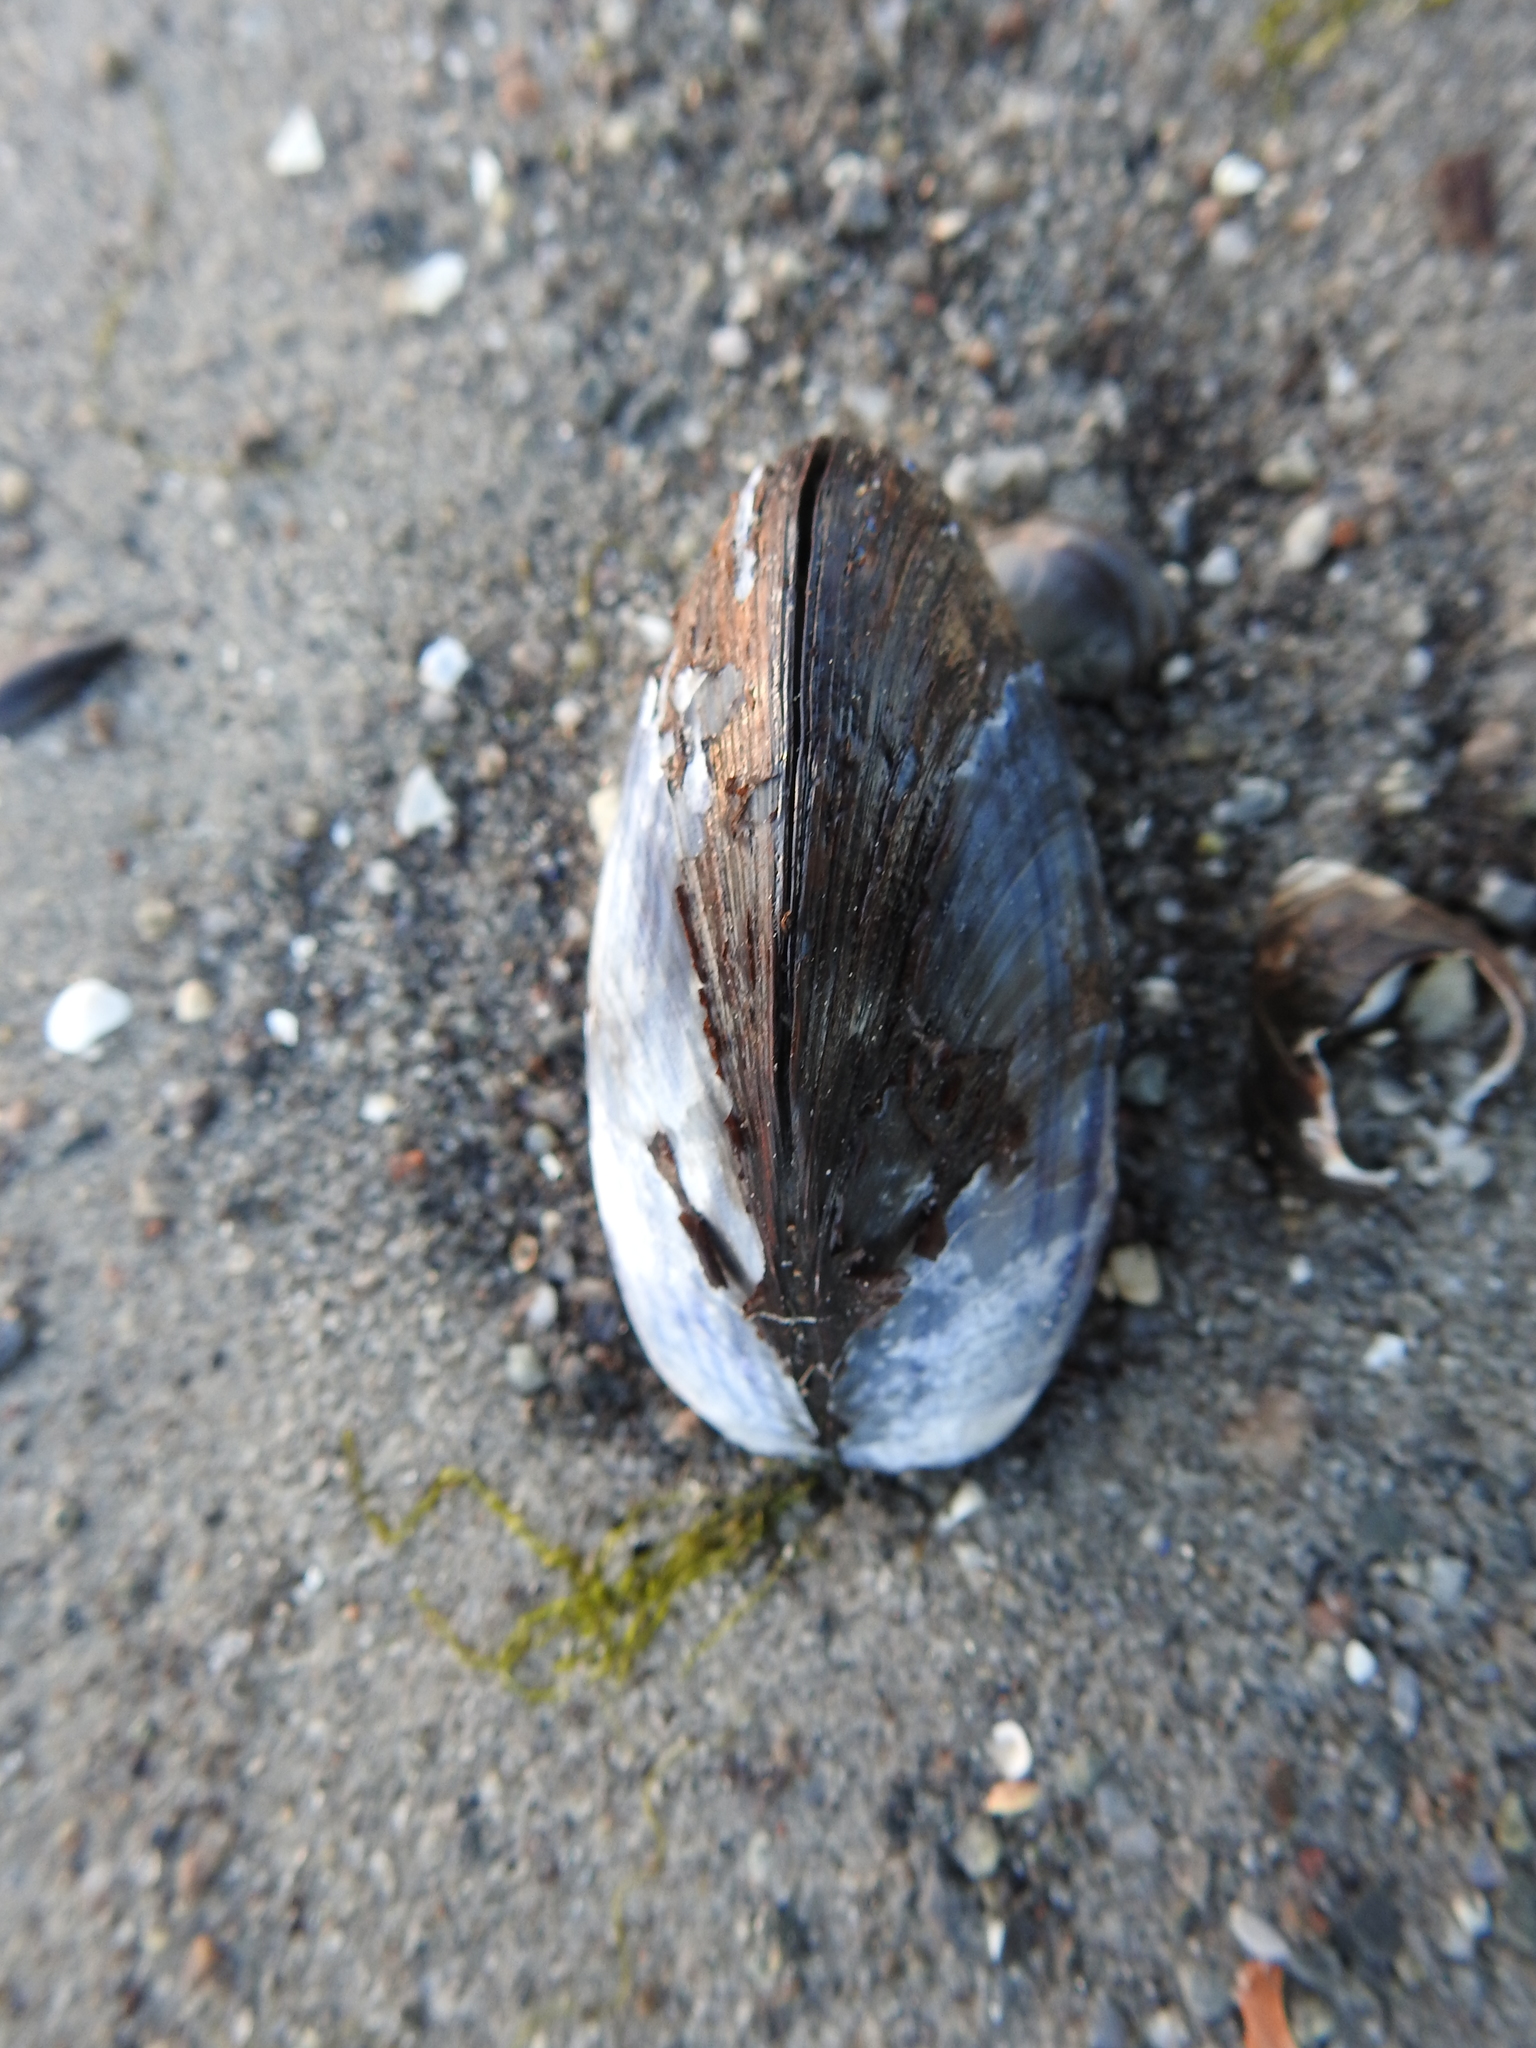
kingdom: Animalia
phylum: Mollusca
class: Bivalvia
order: Mytilida
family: Mytilidae
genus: Mytilus
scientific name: Mytilus edulis
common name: Blue mussel
